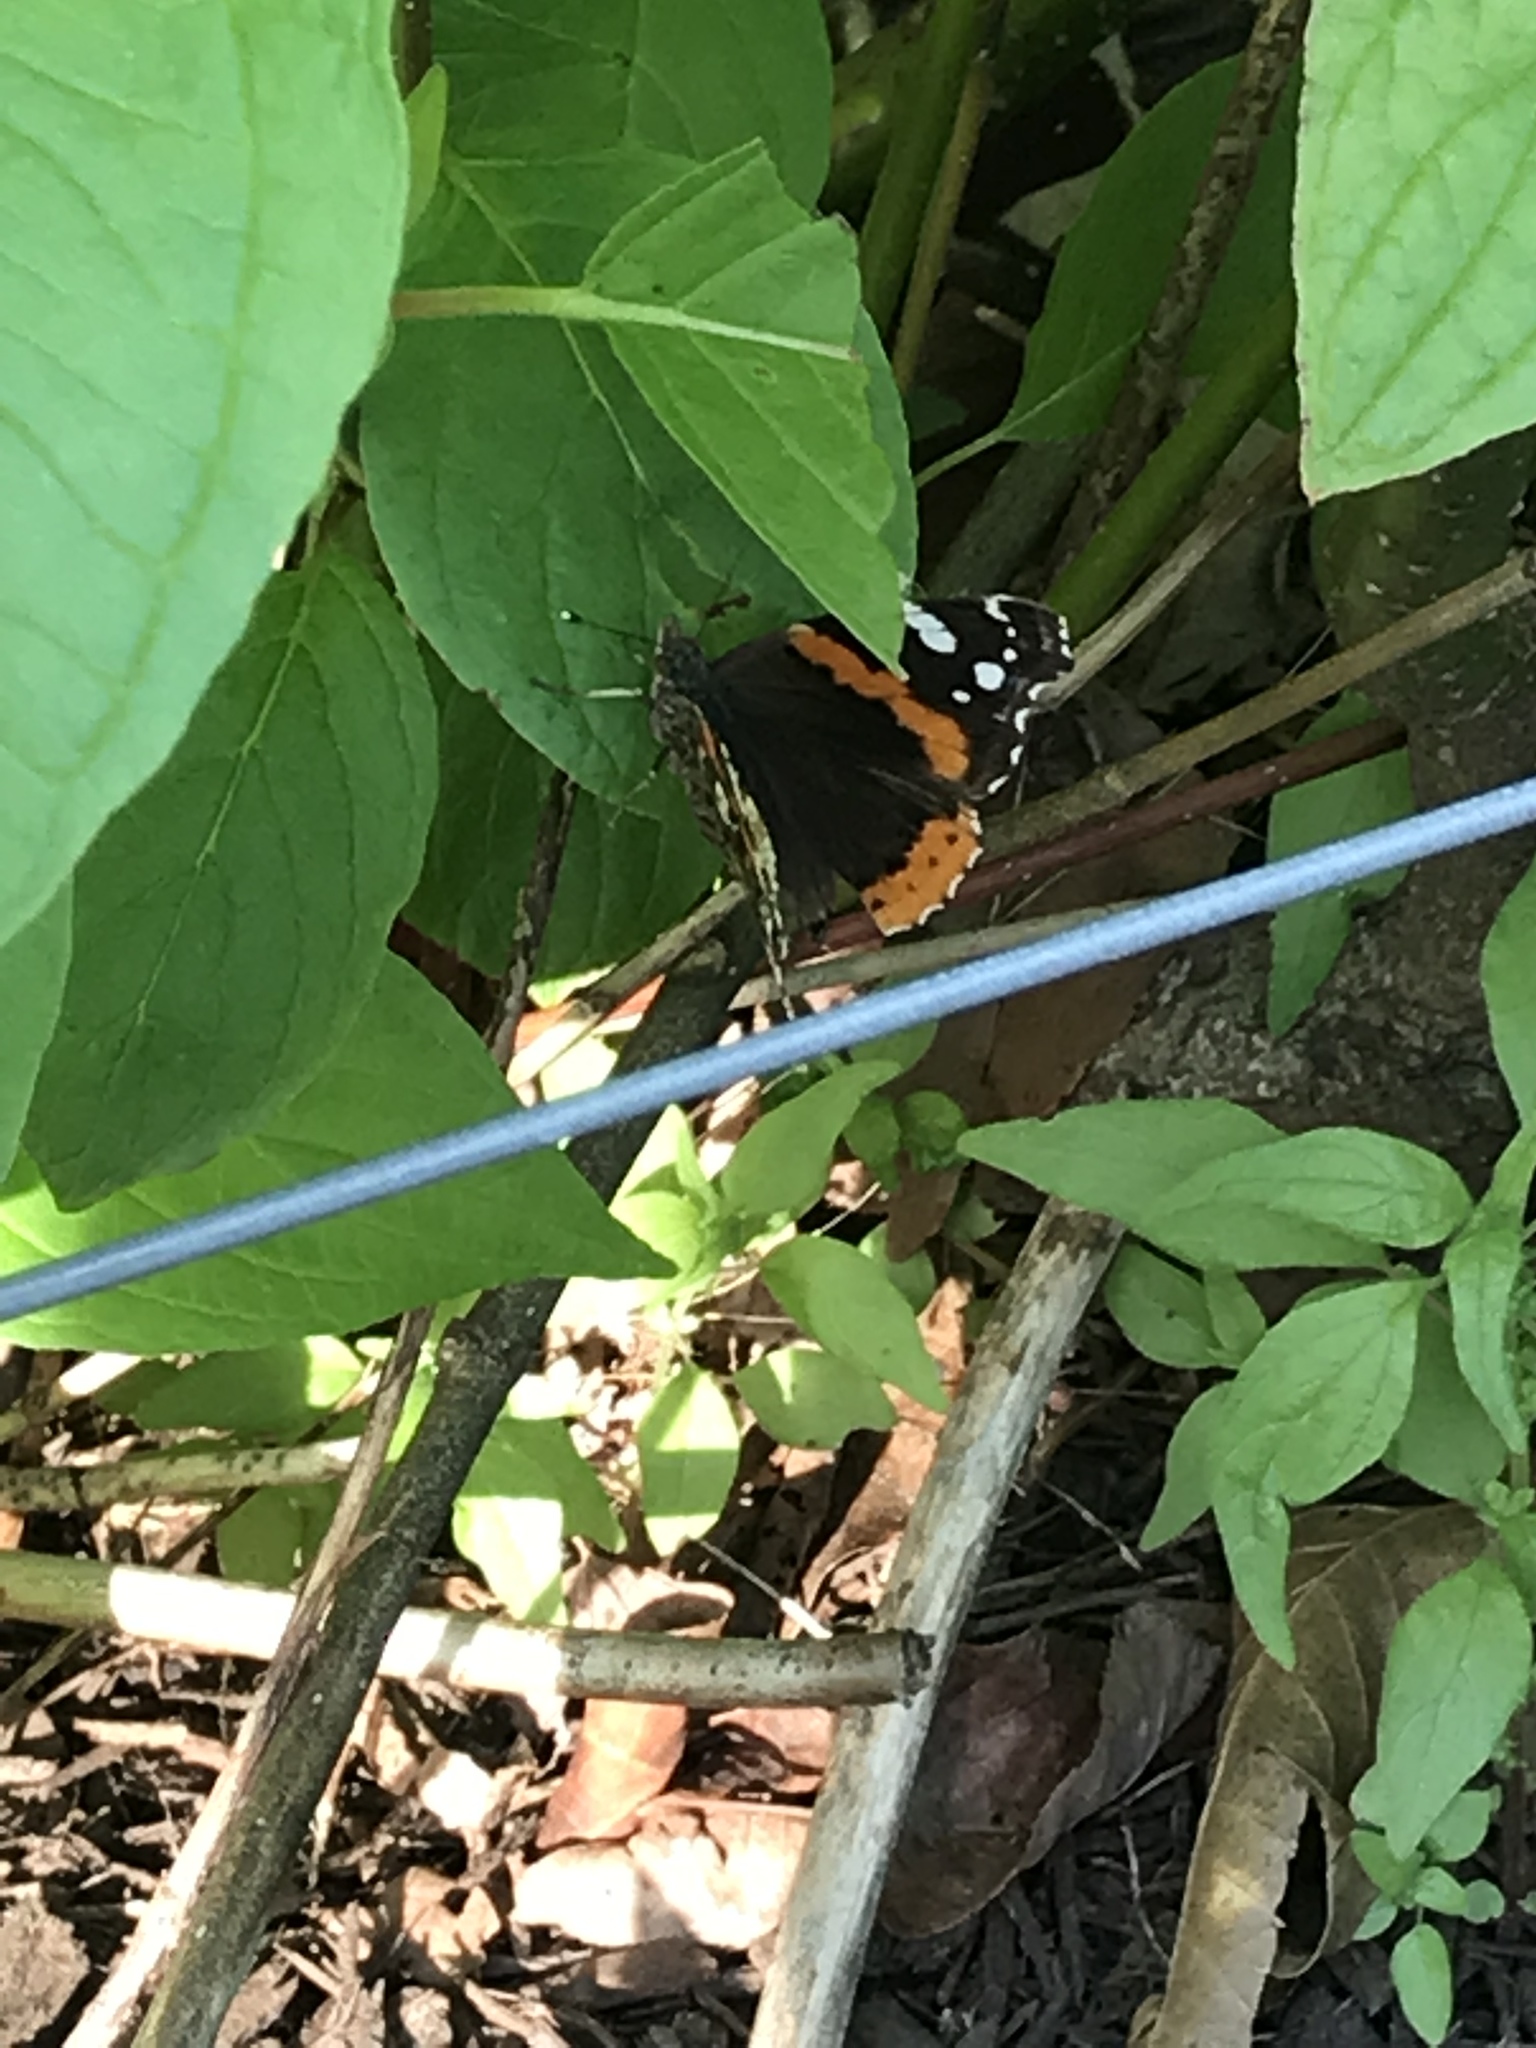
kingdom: Animalia
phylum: Arthropoda
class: Insecta
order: Lepidoptera
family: Nymphalidae
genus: Vanessa
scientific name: Vanessa atalanta
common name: Red admiral
